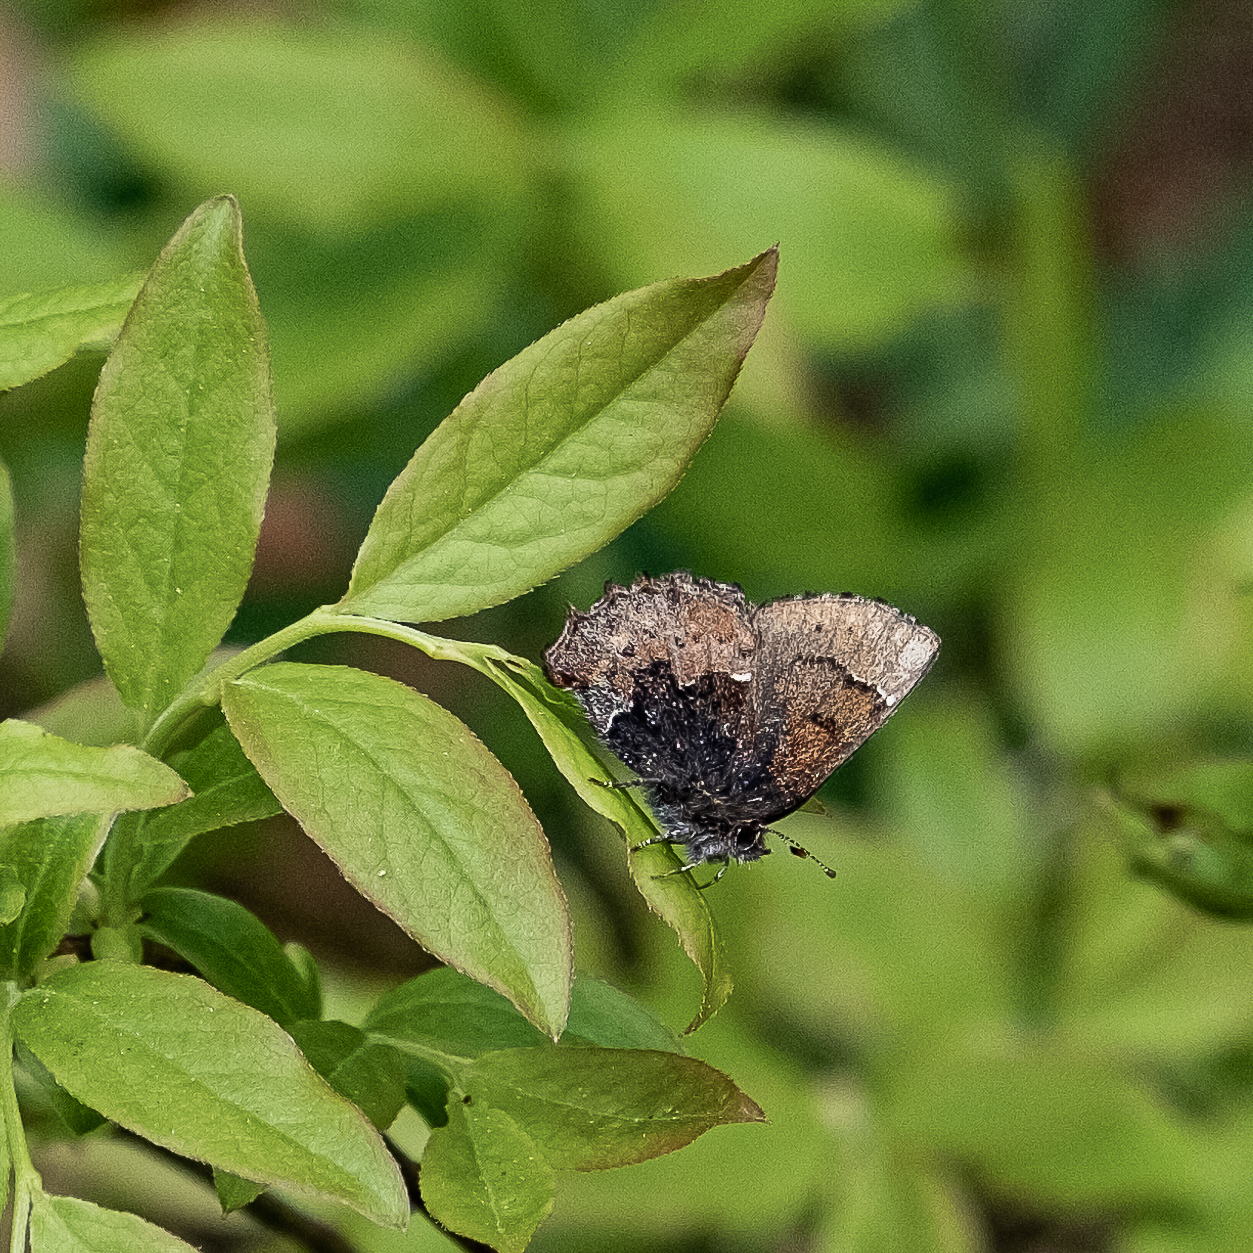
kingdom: Animalia
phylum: Arthropoda
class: Insecta
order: Lepidoptera
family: Lycaenidae
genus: Incisalia
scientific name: Incisalia henrici
